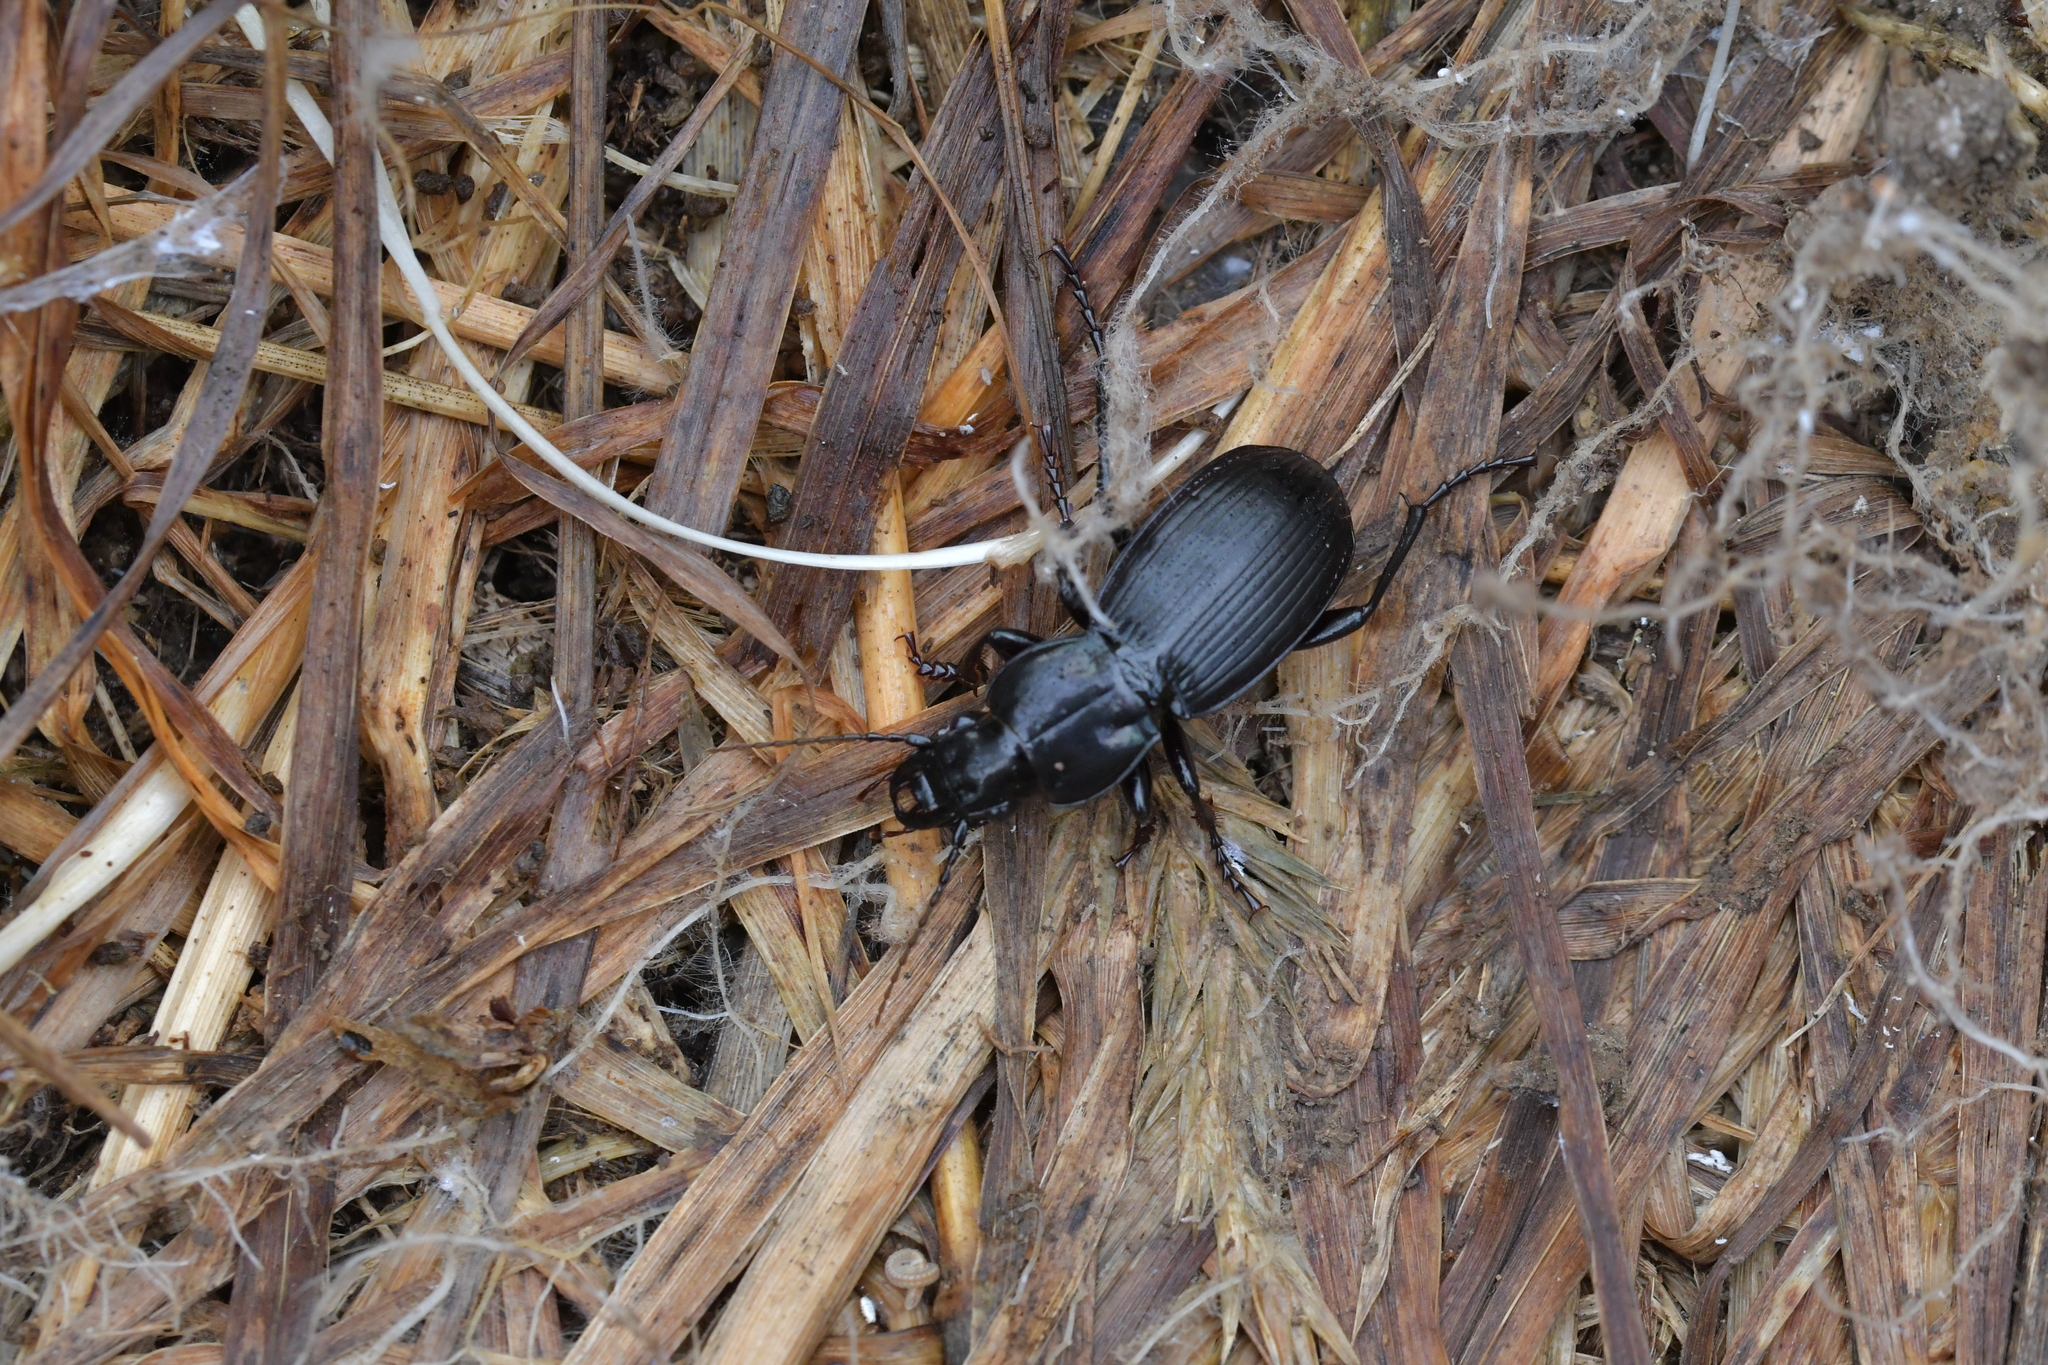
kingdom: Animalia
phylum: Arthropoda
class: Insecta
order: Coleoptera
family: Carabidae
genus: Megadromus
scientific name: Megadromus vigil
